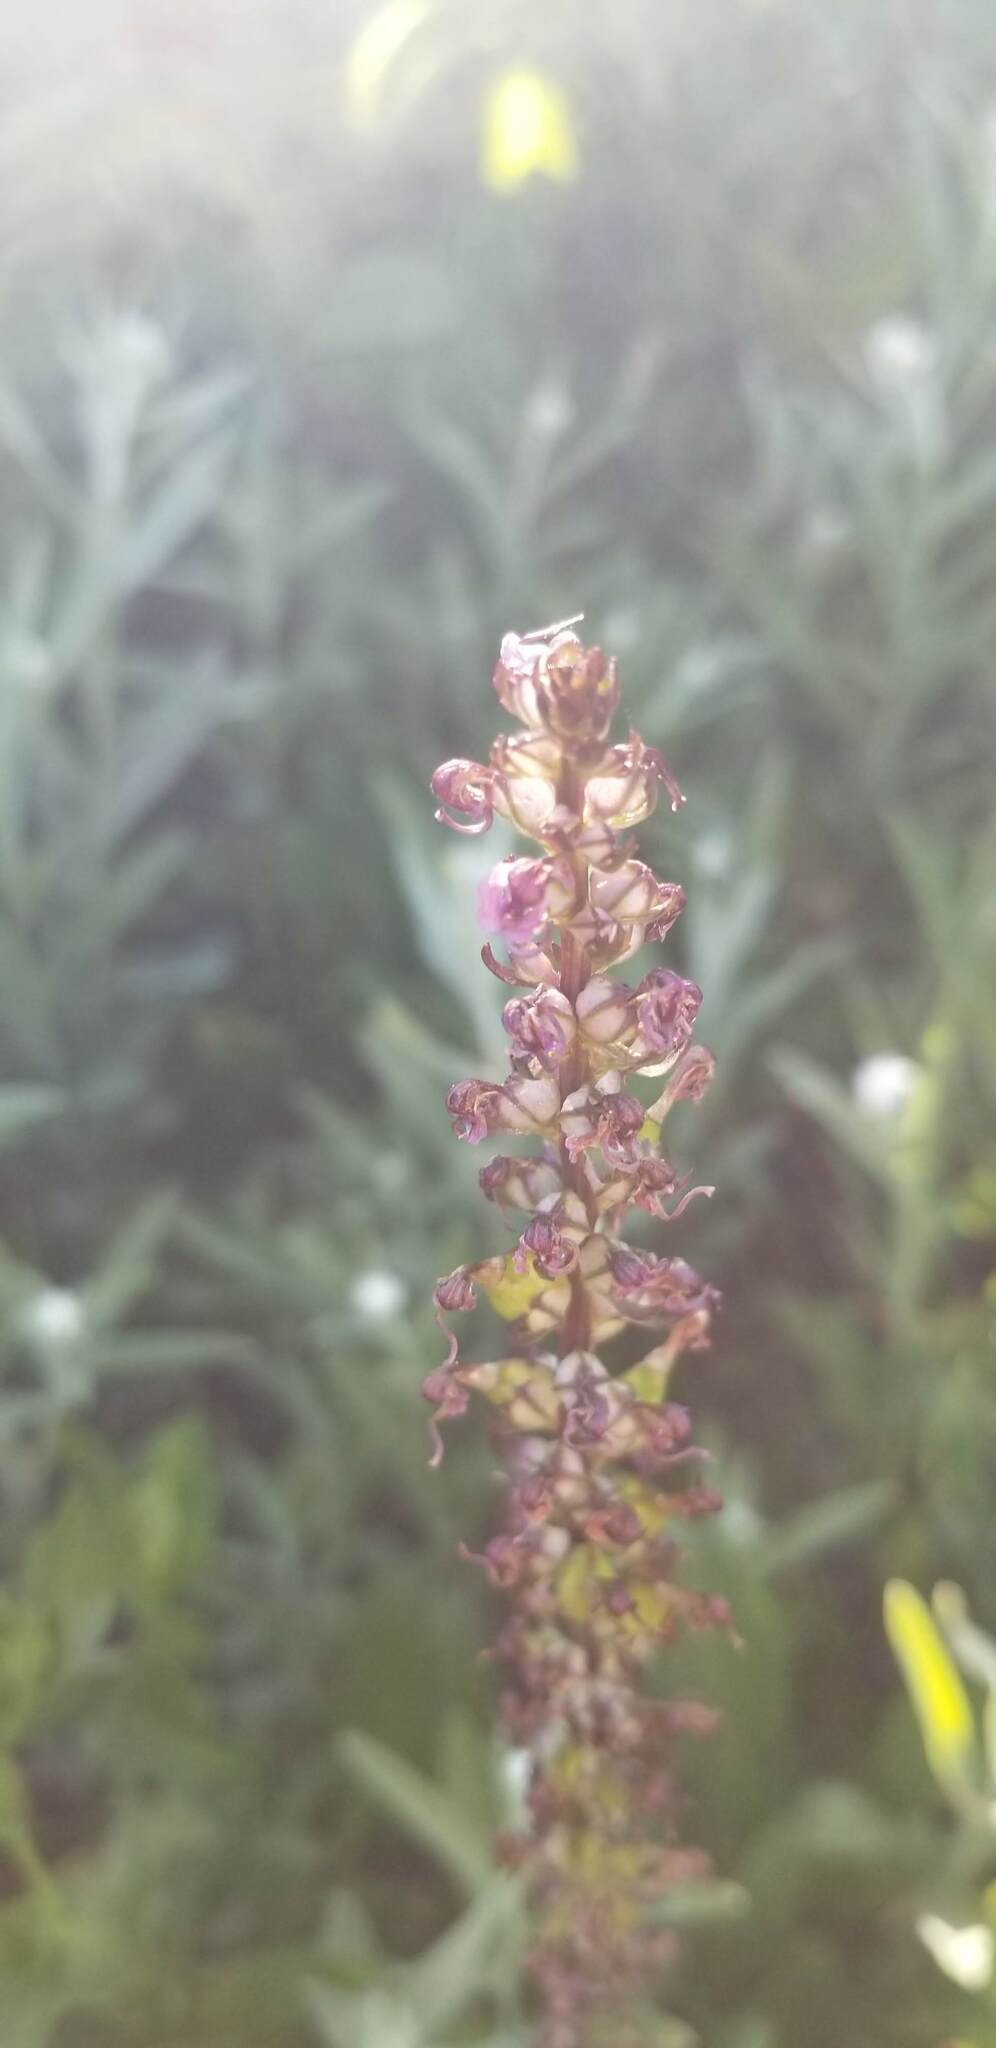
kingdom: Plantae
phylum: Tracheophyta
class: Magnoliopsida
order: Lamiales
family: Orobanchaceae
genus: Pedicularis
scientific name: Pedicularis groenlandica
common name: Elephant's-head
